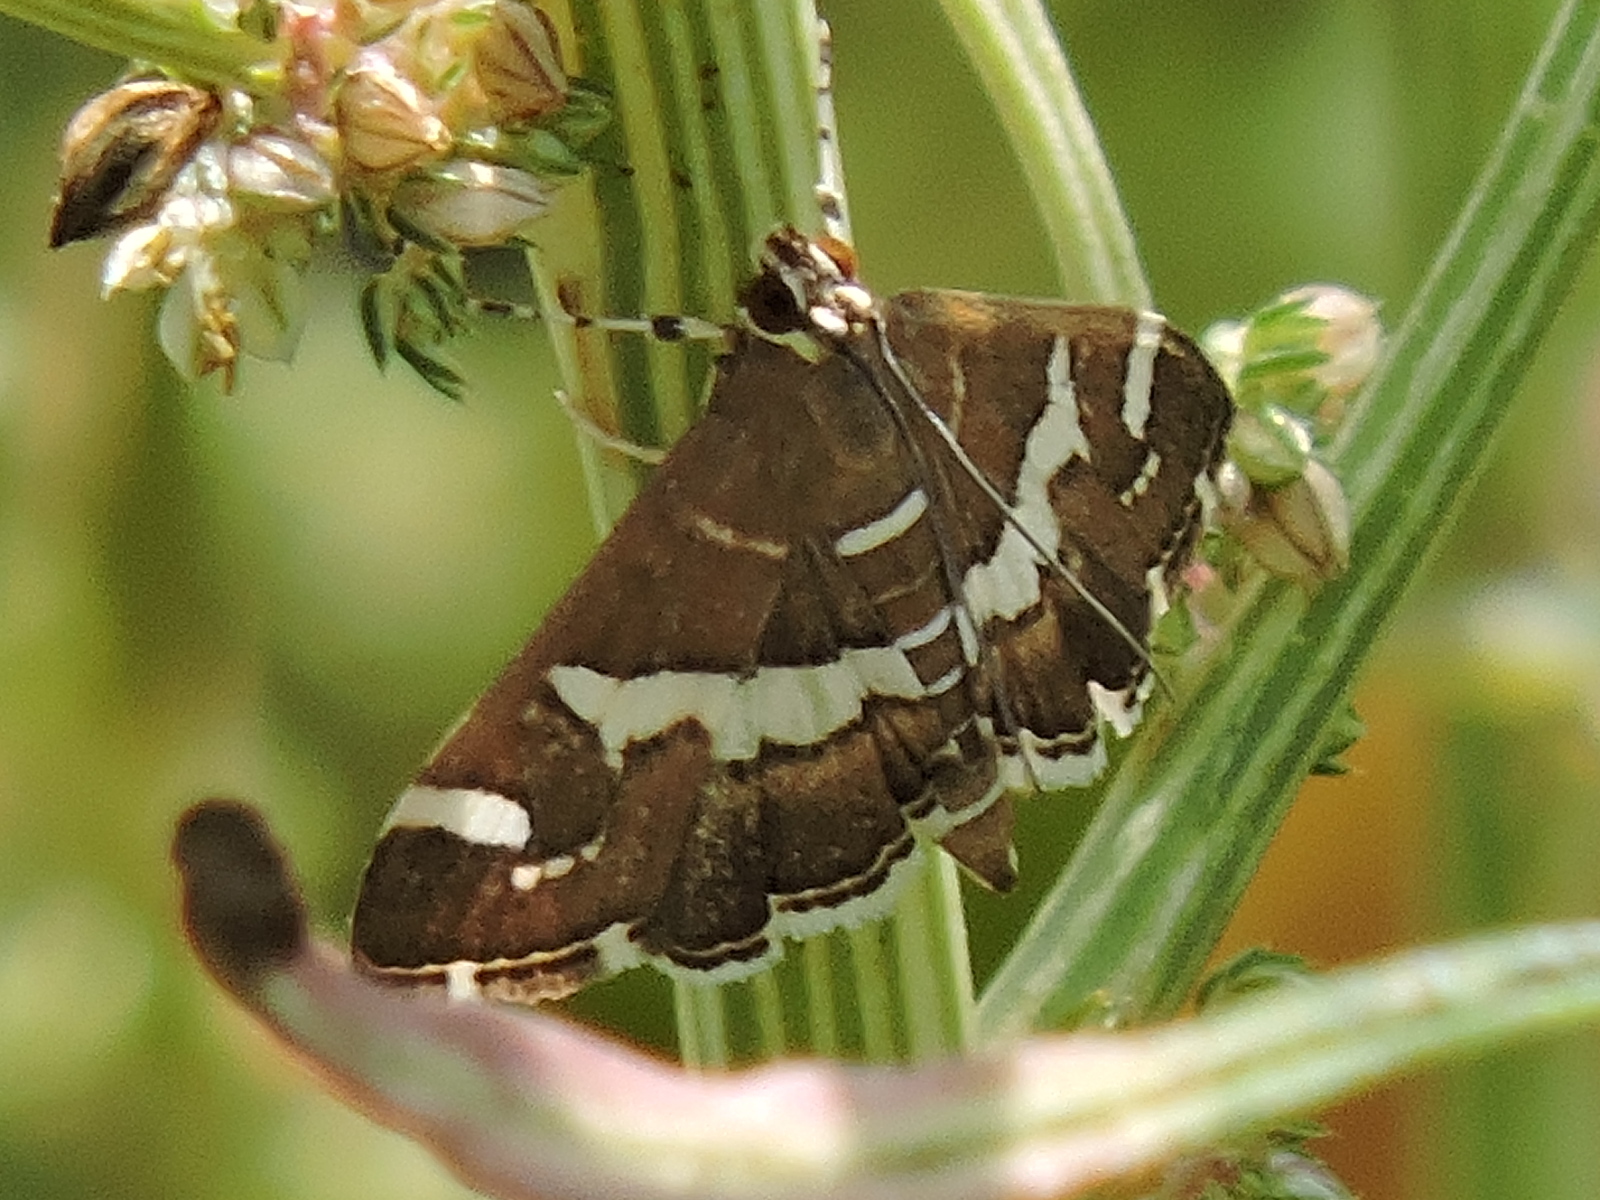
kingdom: Animalia
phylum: Arthropoda
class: Insecta
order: Lepidoptera
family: Crambidae
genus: Spoladea
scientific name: Spoladea recurvalis
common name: Beet webworm moth
